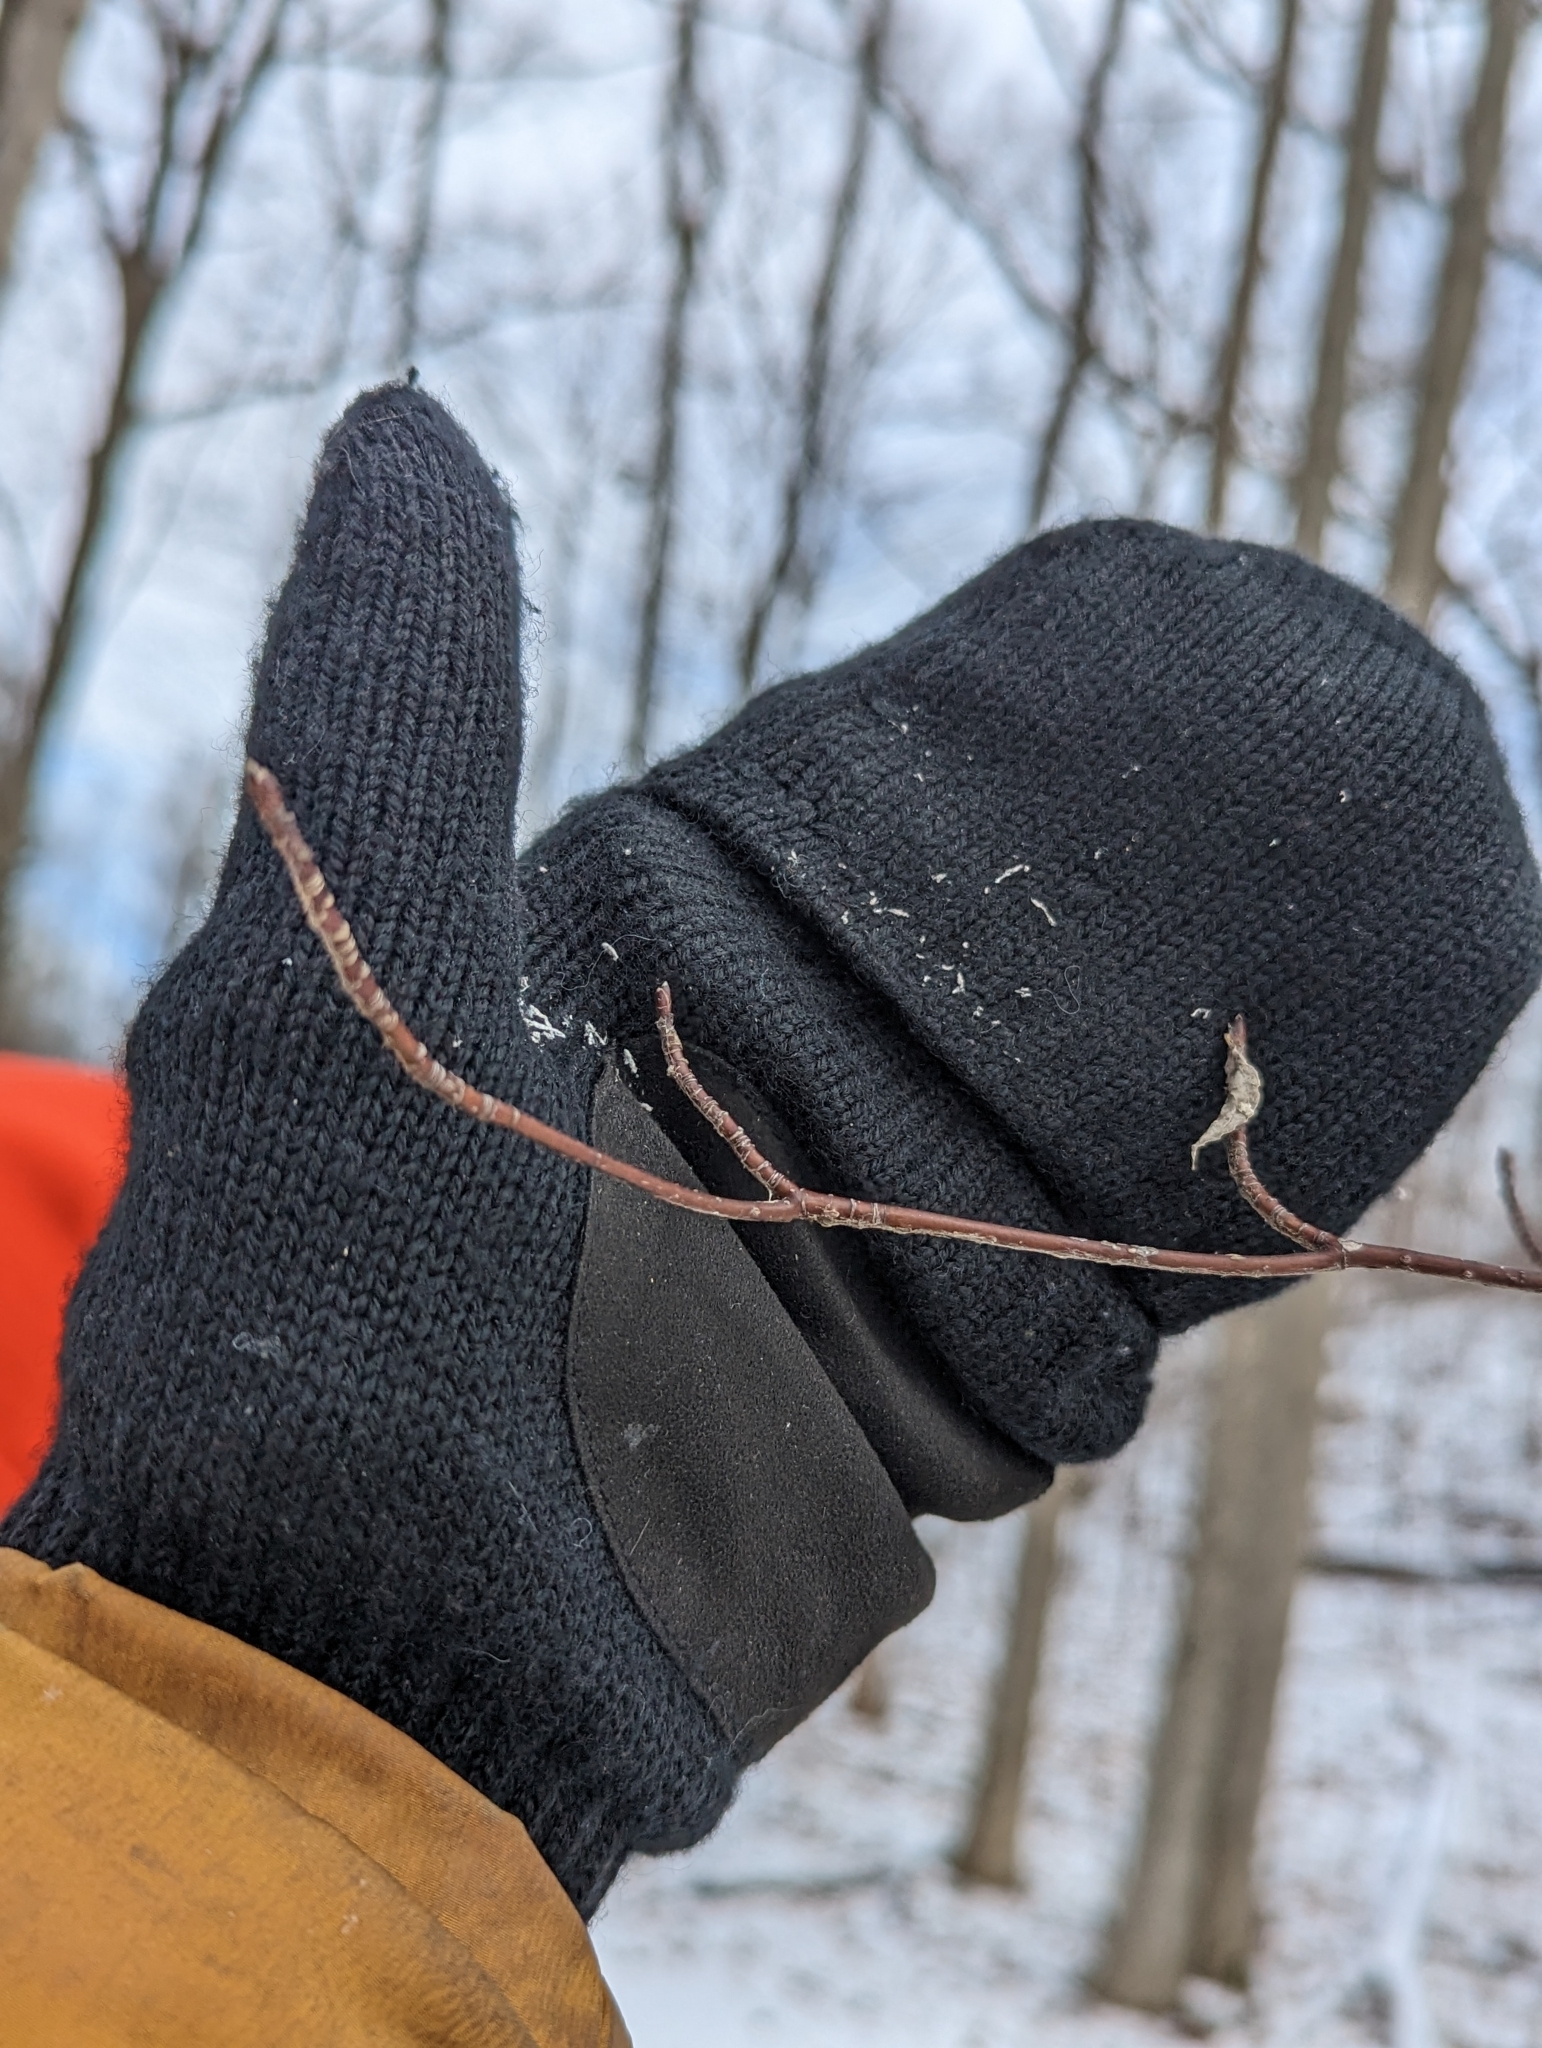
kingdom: Plantae
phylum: Tracheophyta
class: Magnoliopsida
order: Cornales
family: Cornaceae
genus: Cornus
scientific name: Cornus alternifolia
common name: Pagoda dogwood
